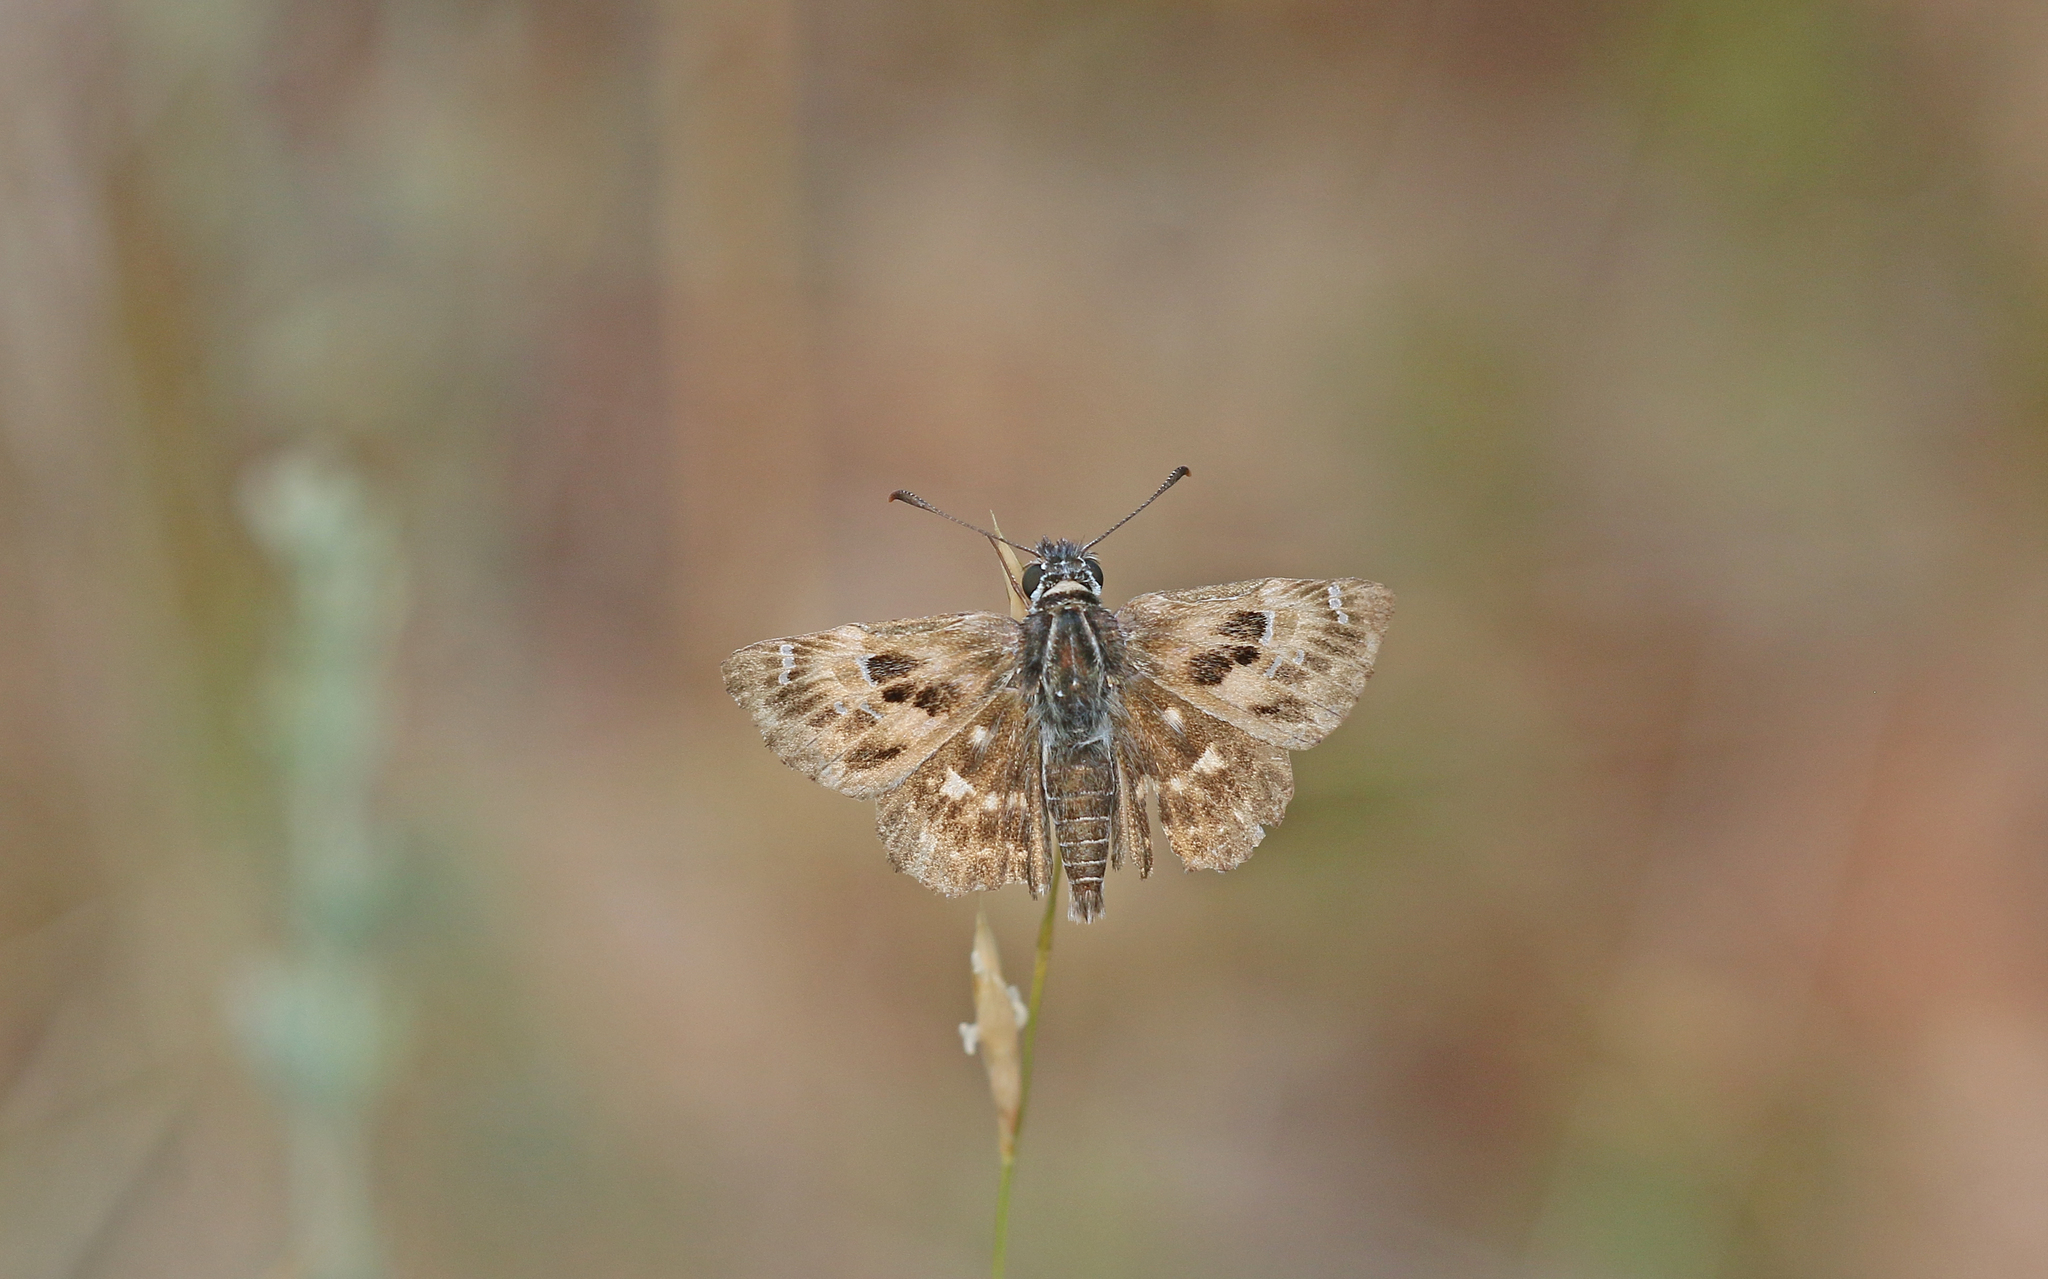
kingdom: Animalia
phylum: Arthropoda
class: Insecta
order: Lepidoptera
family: Hesperiidae
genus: Carcharodus
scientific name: Carcharodus alceae
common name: Mallow skipper
